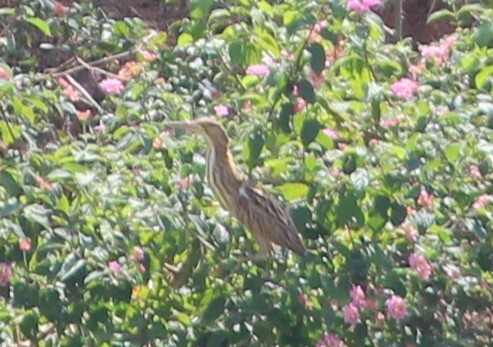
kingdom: Animalia
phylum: Chordata
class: Aves
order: Pelecaniformes
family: Ardeidae
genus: Ixobrychus
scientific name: Ixobrychus sinensis
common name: Yellow bittern
